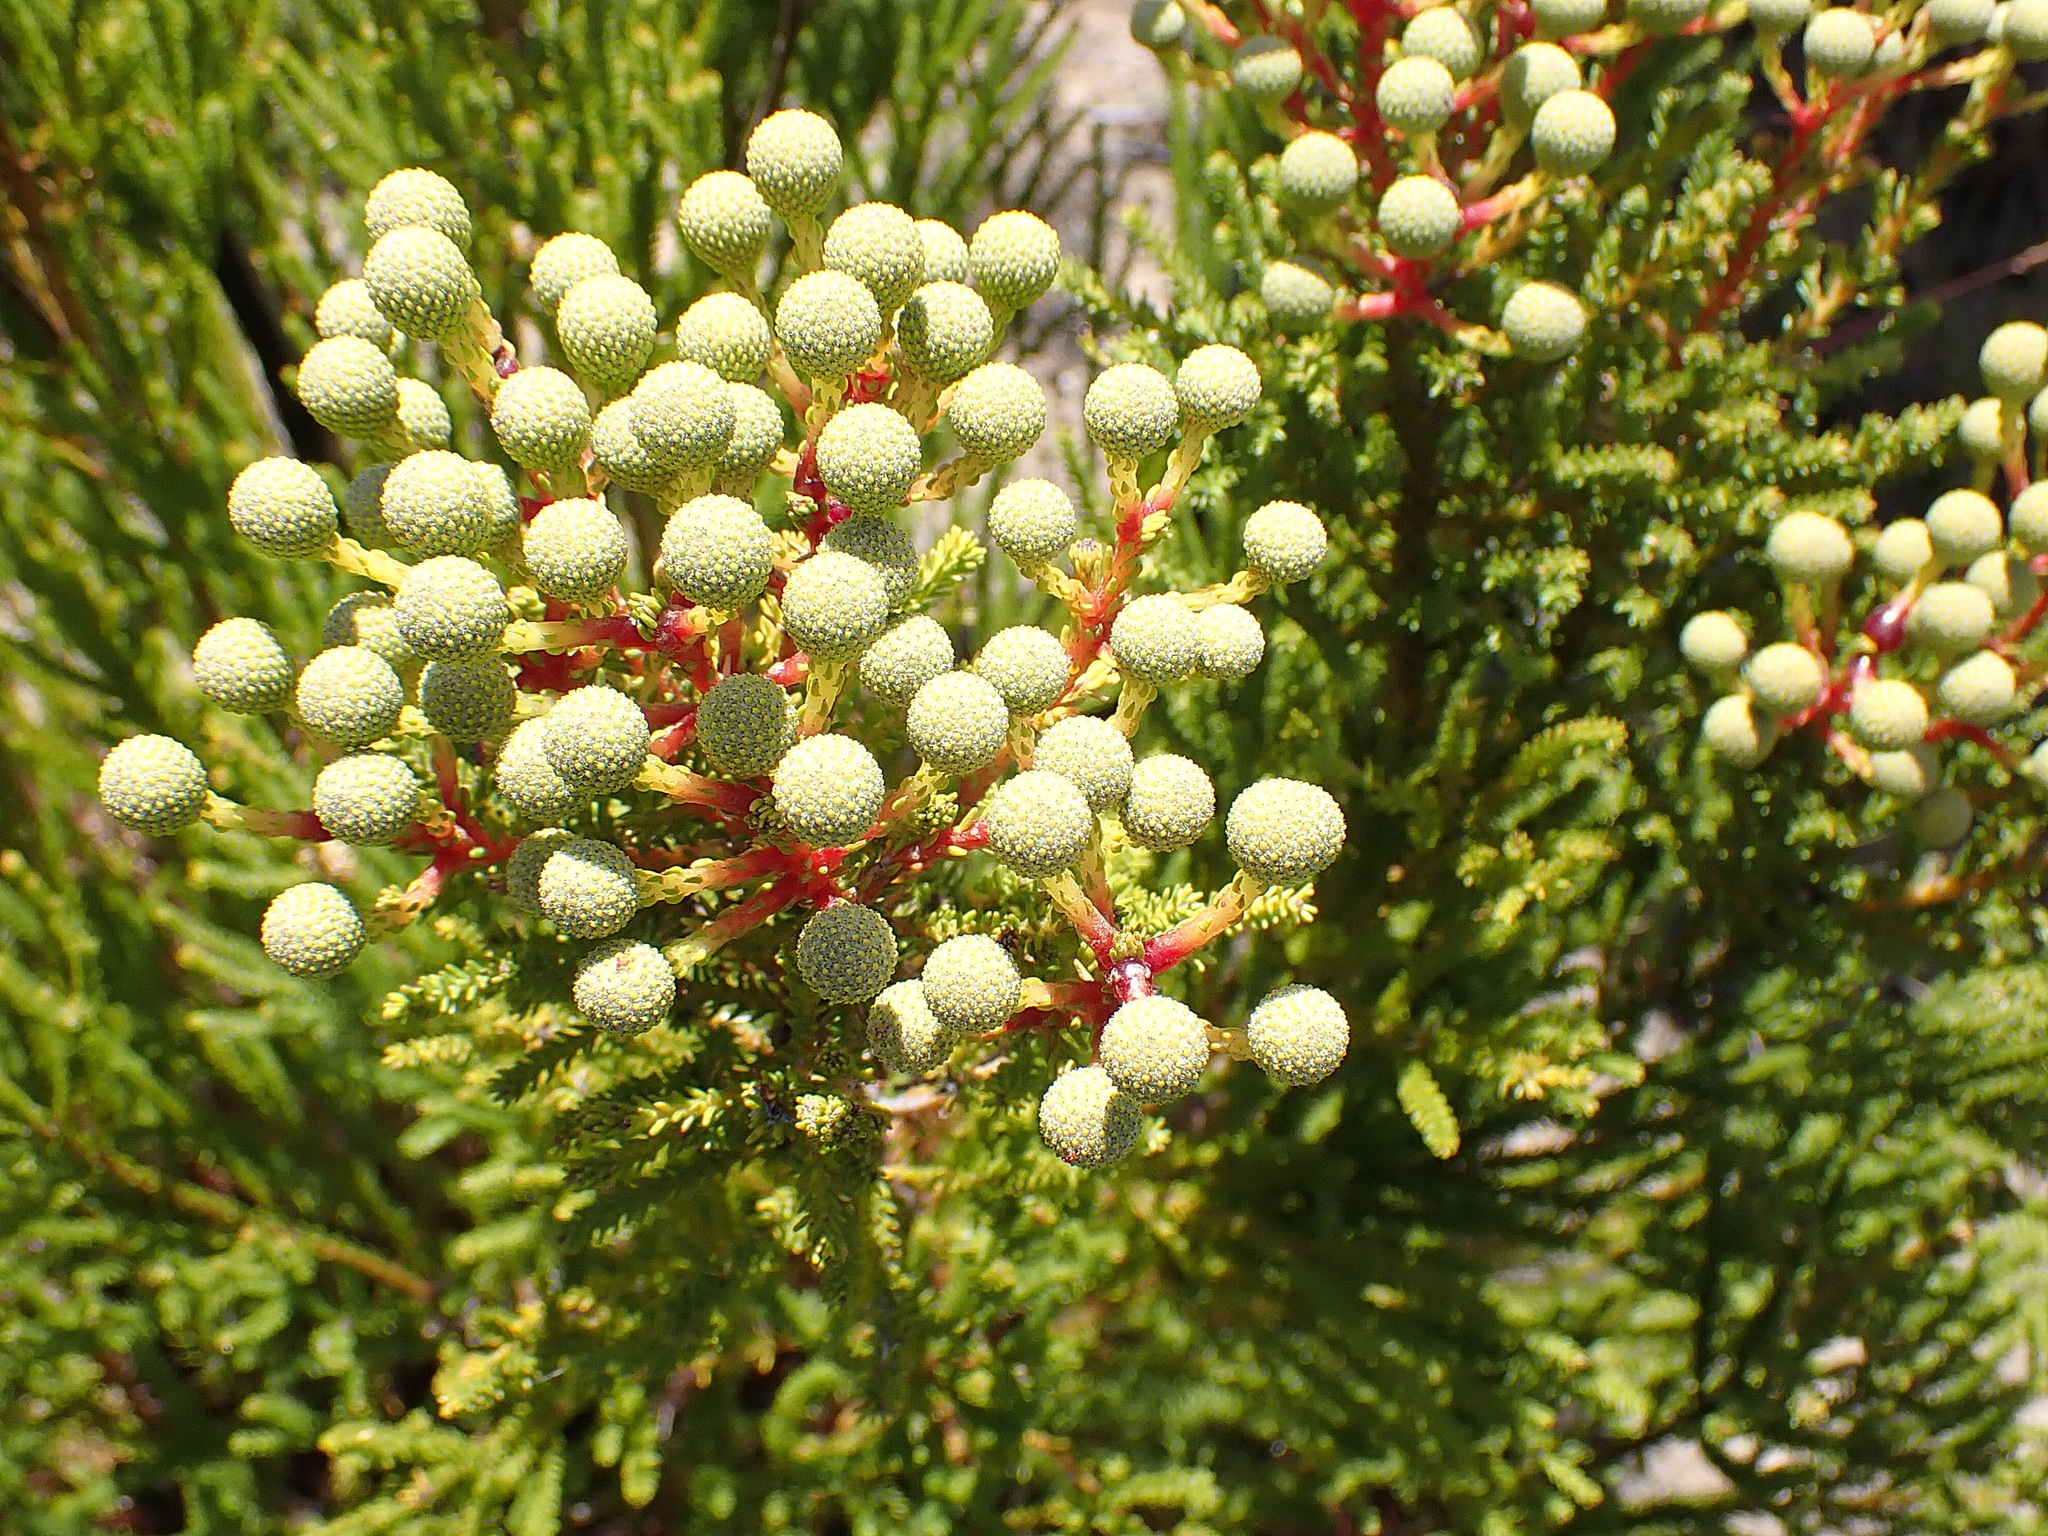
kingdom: Plantae
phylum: Tracheophyta
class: Magnoliopsida
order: Bruniales
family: Bruniaceae
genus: Berzelia
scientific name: Berzelia intermedia
